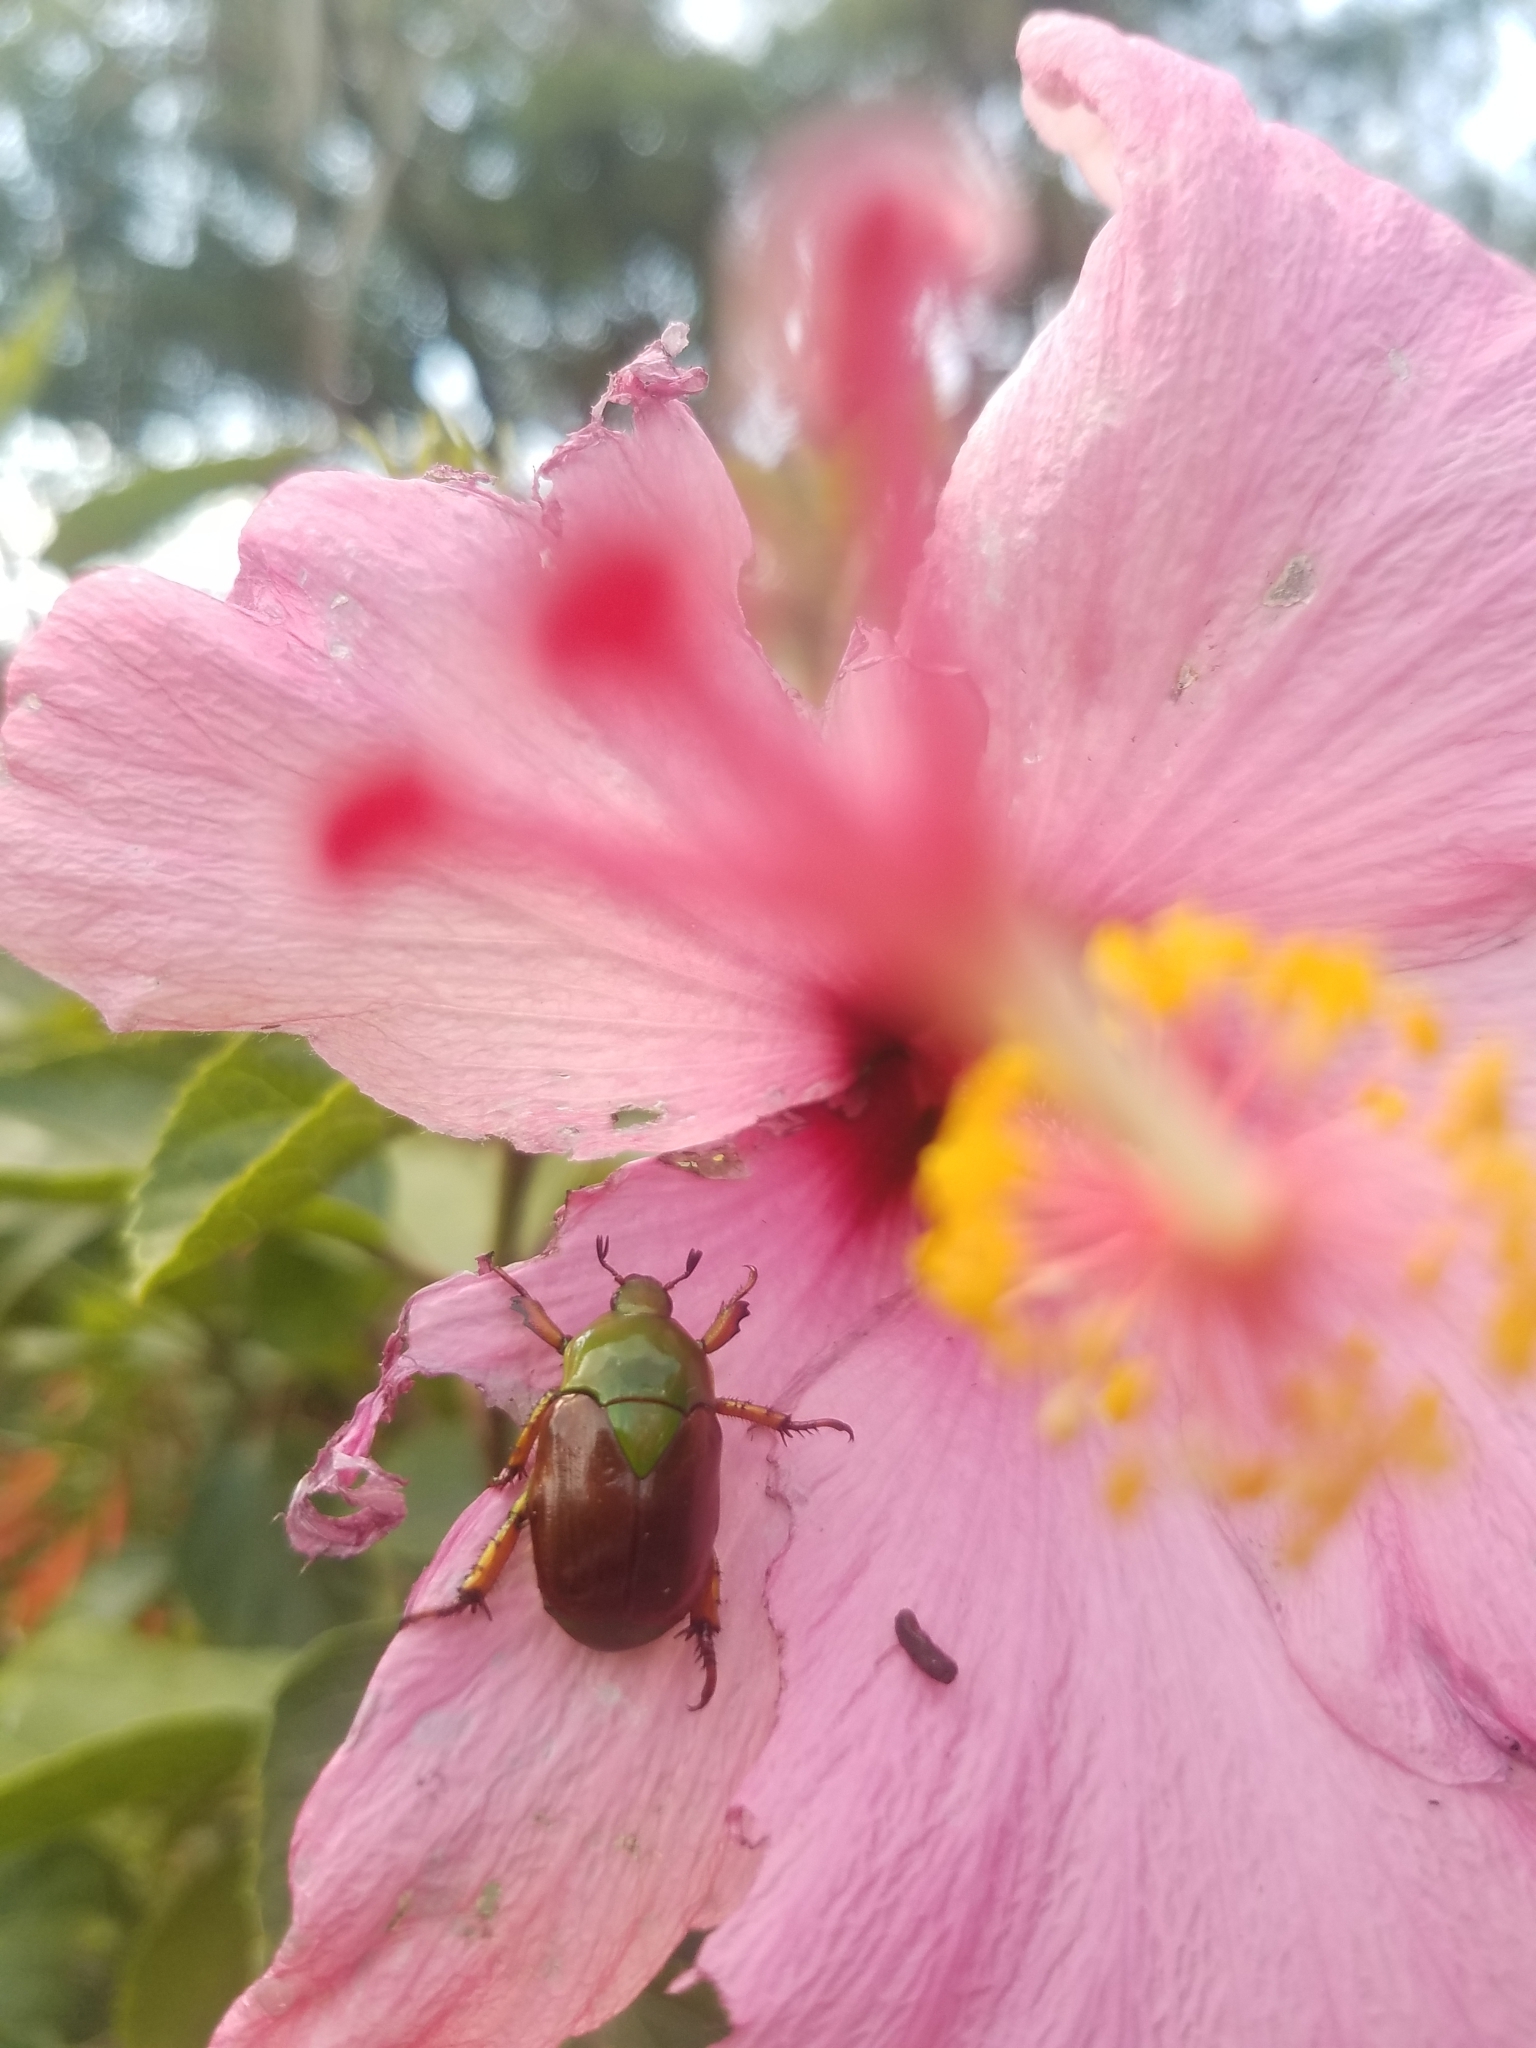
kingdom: Animalia
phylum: Arthropoda
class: Insecta
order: Coleoptera
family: Scarabaeidae
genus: Calomacraspis
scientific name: Calomacraspis haroldi
